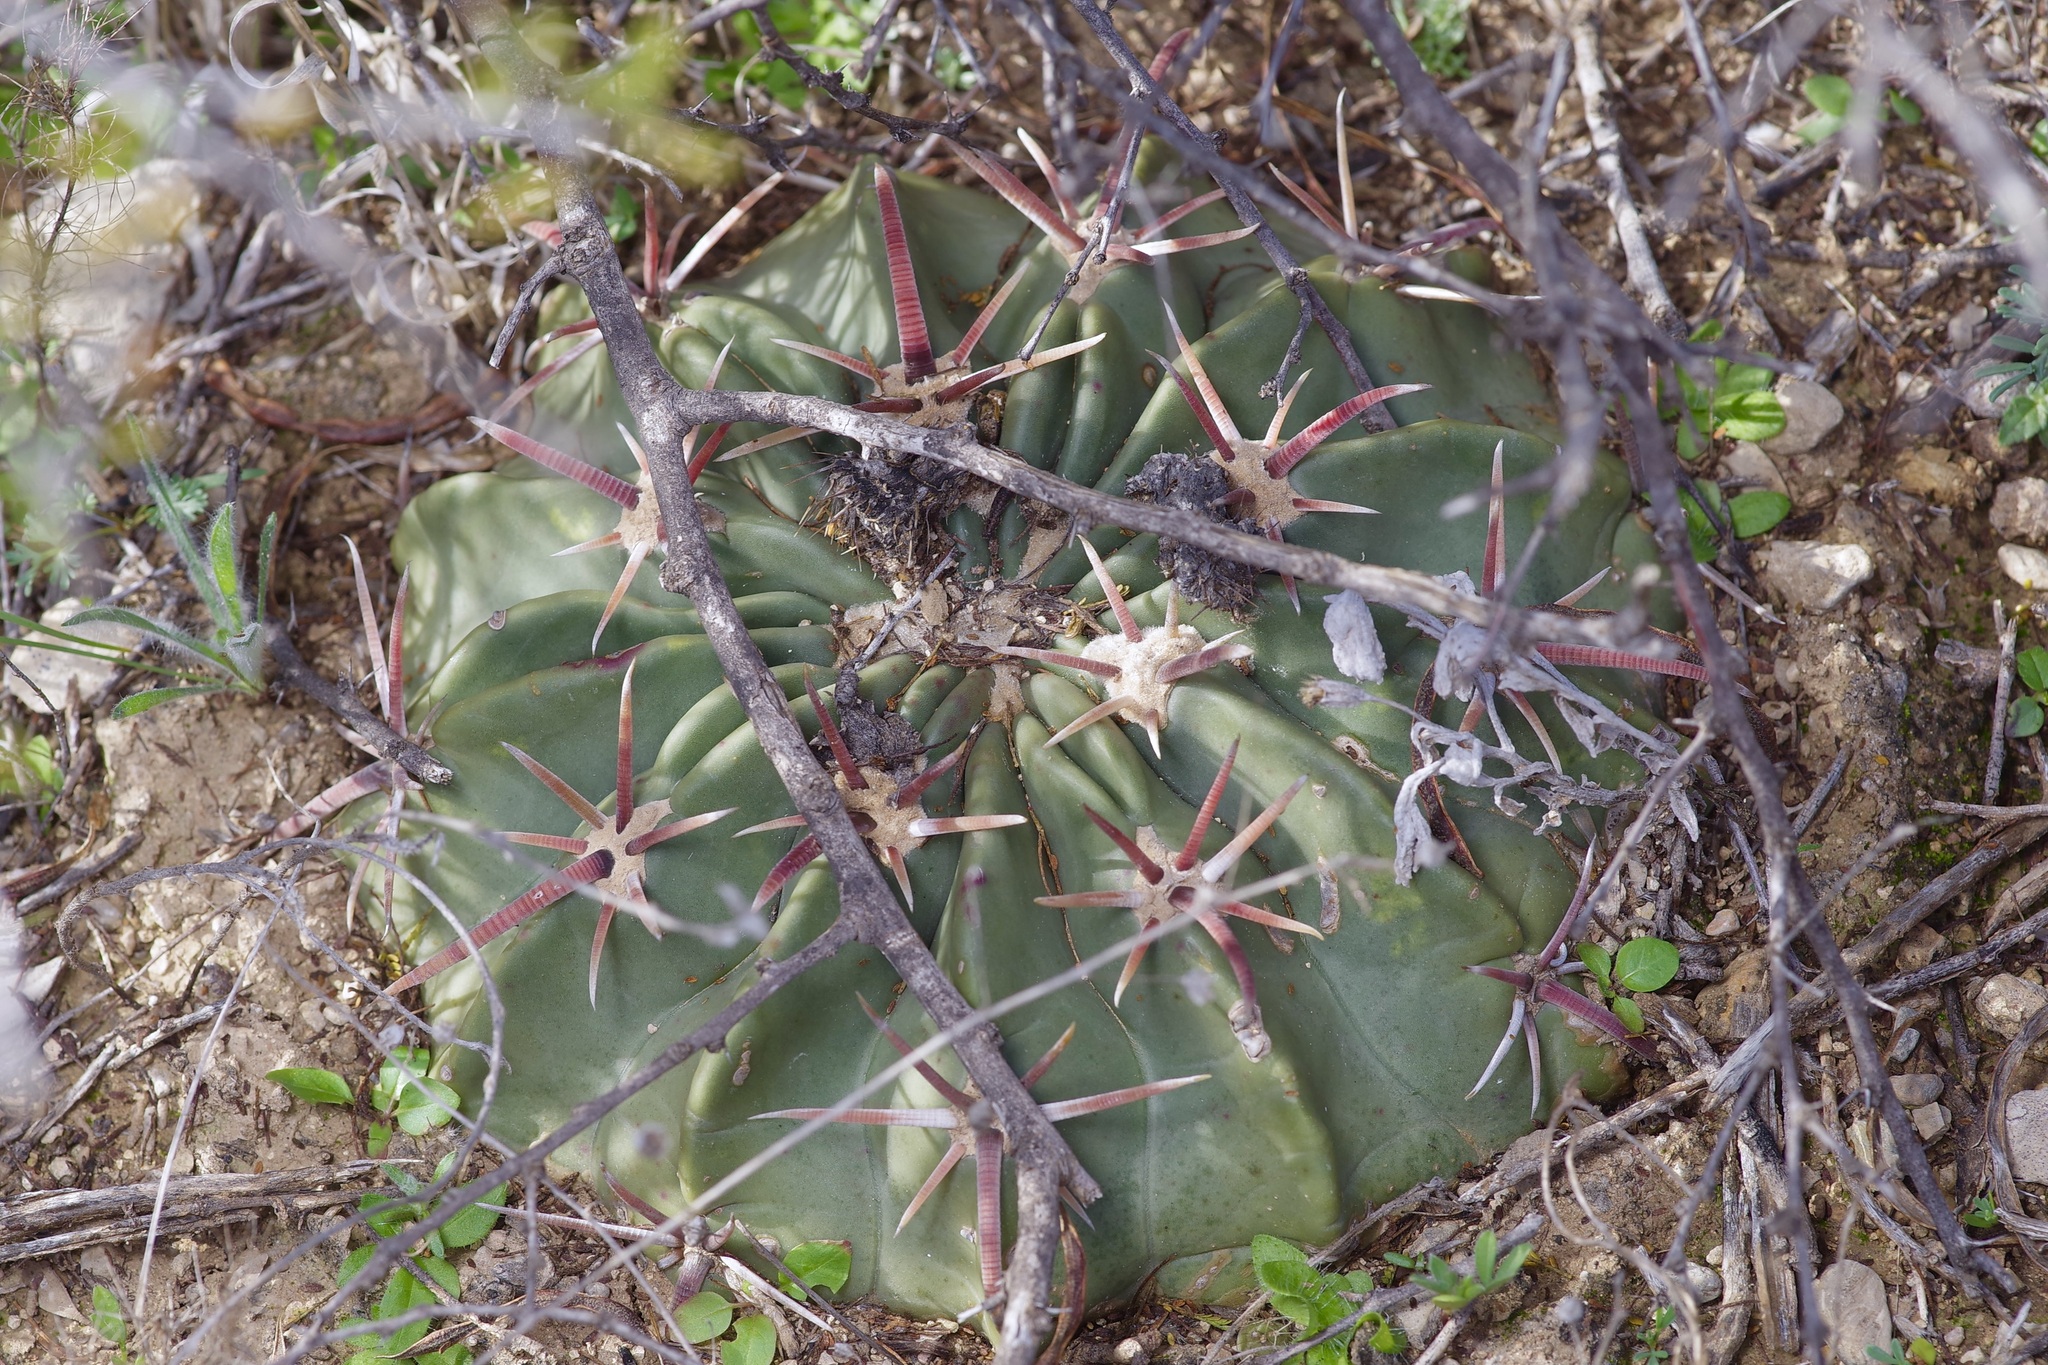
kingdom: Plantae
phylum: Tracheophyta
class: Magnoliopsida
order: Caryophyllales
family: Cactaceae
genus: Echinocactus
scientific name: Echinocactus texensis
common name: Devil's pincushion
